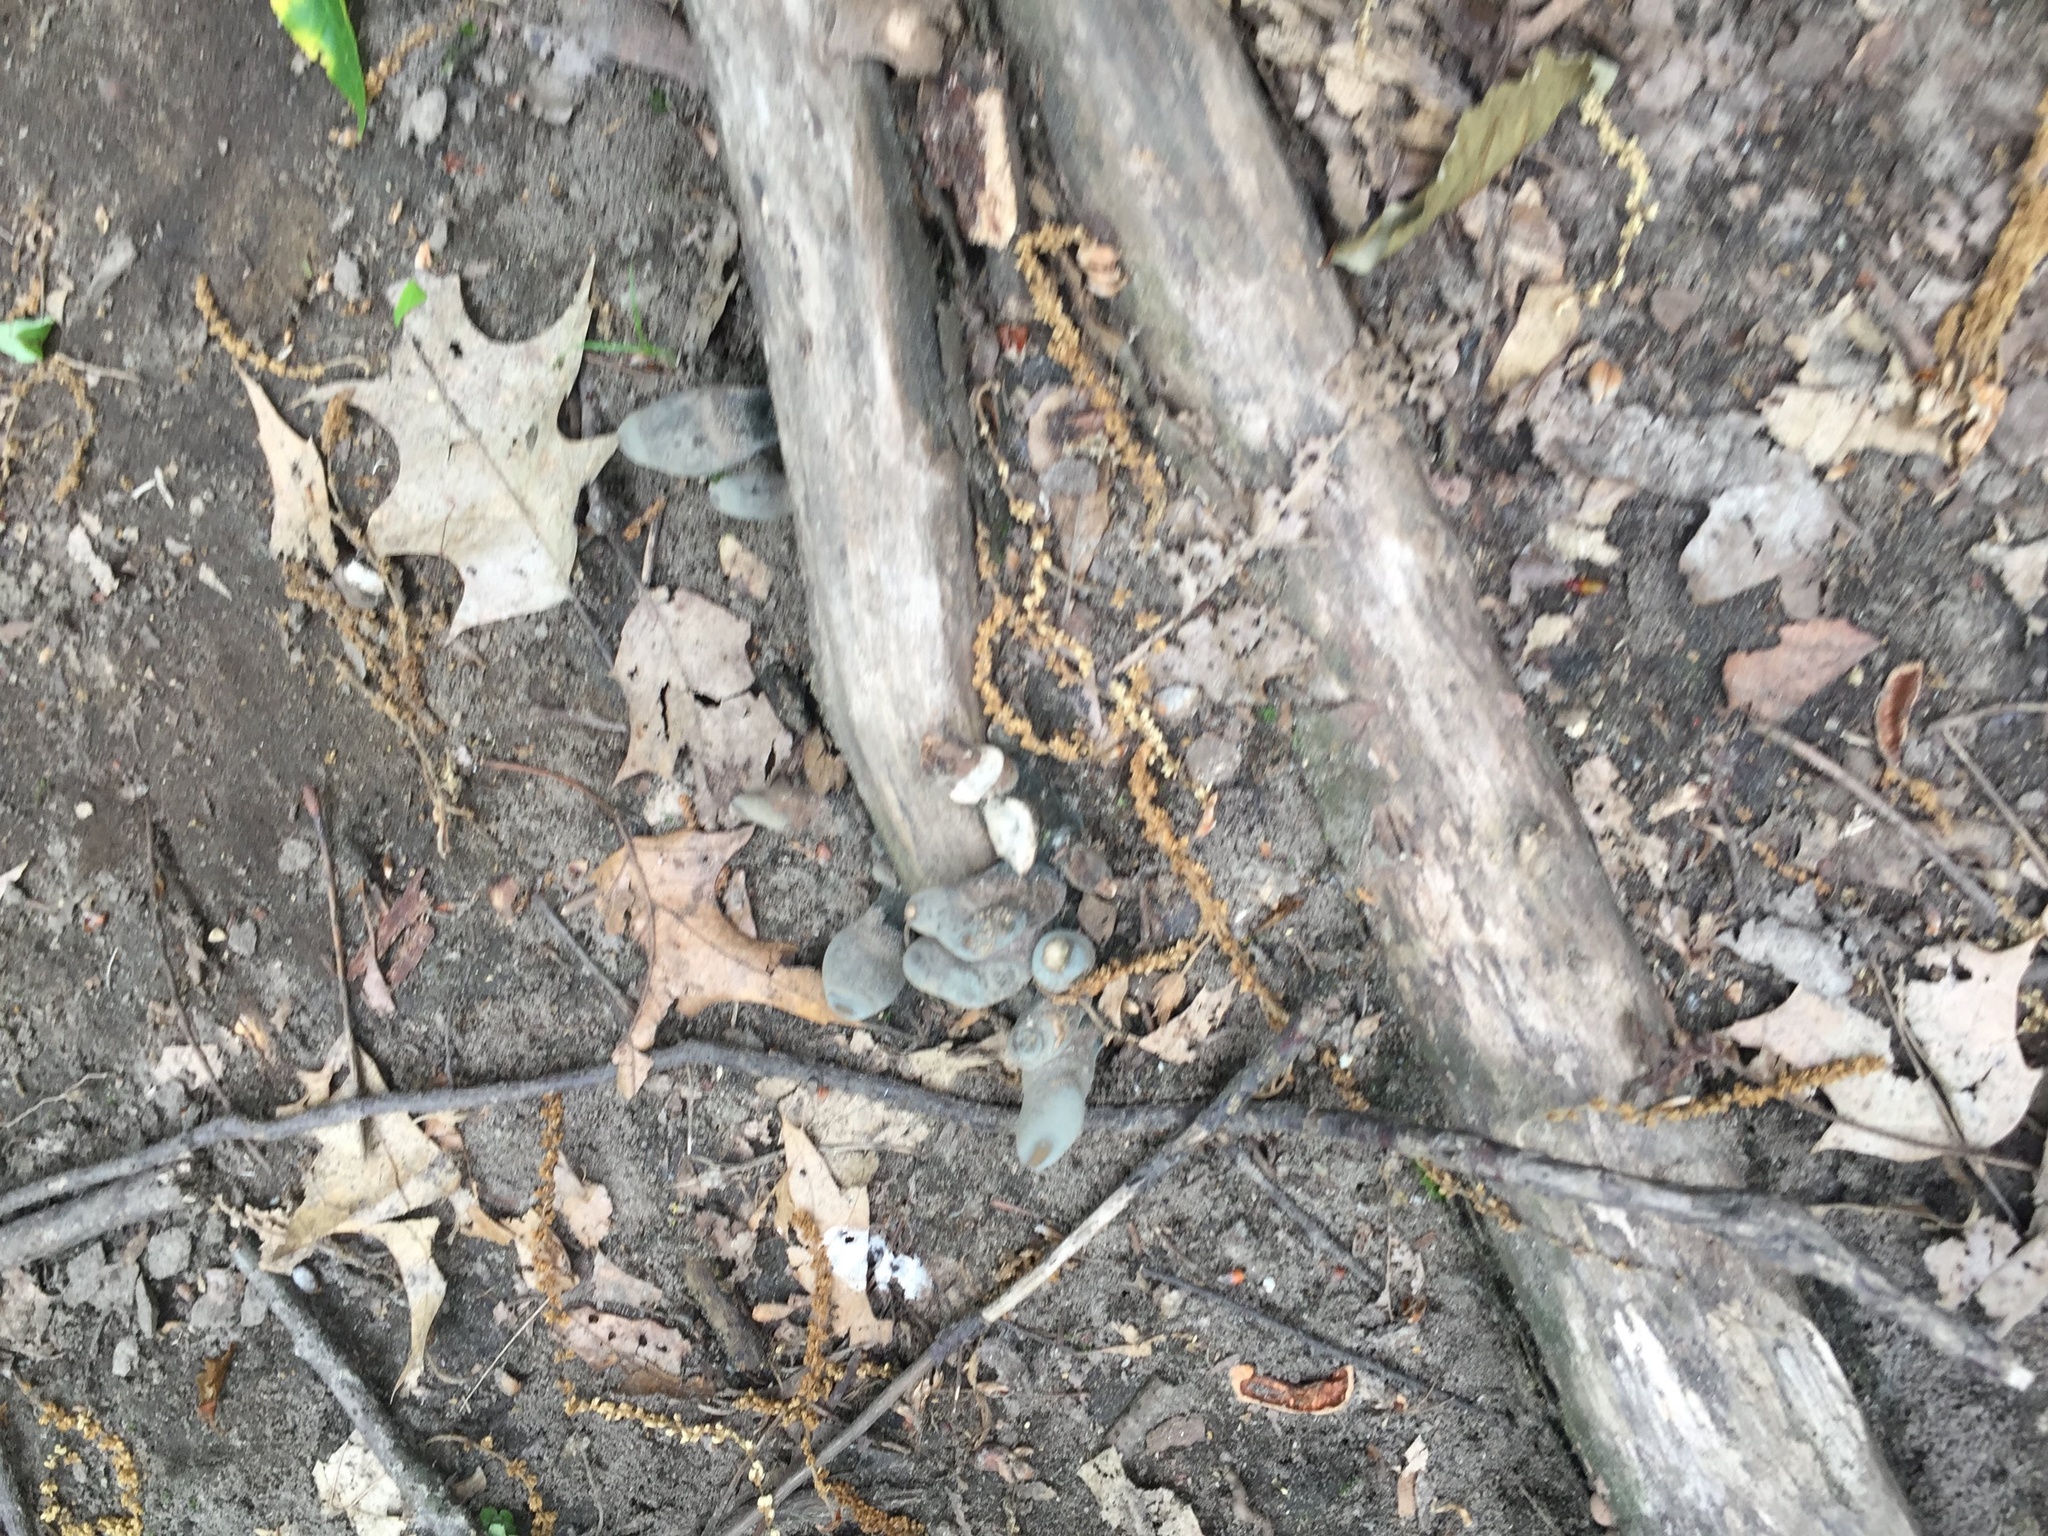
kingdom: Fungi
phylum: Ascomycota
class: Sordariomycetes
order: Xylariales
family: Xylariaceae
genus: Xylaria
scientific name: Xylaria polymorpha
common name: Dead man's fingers
